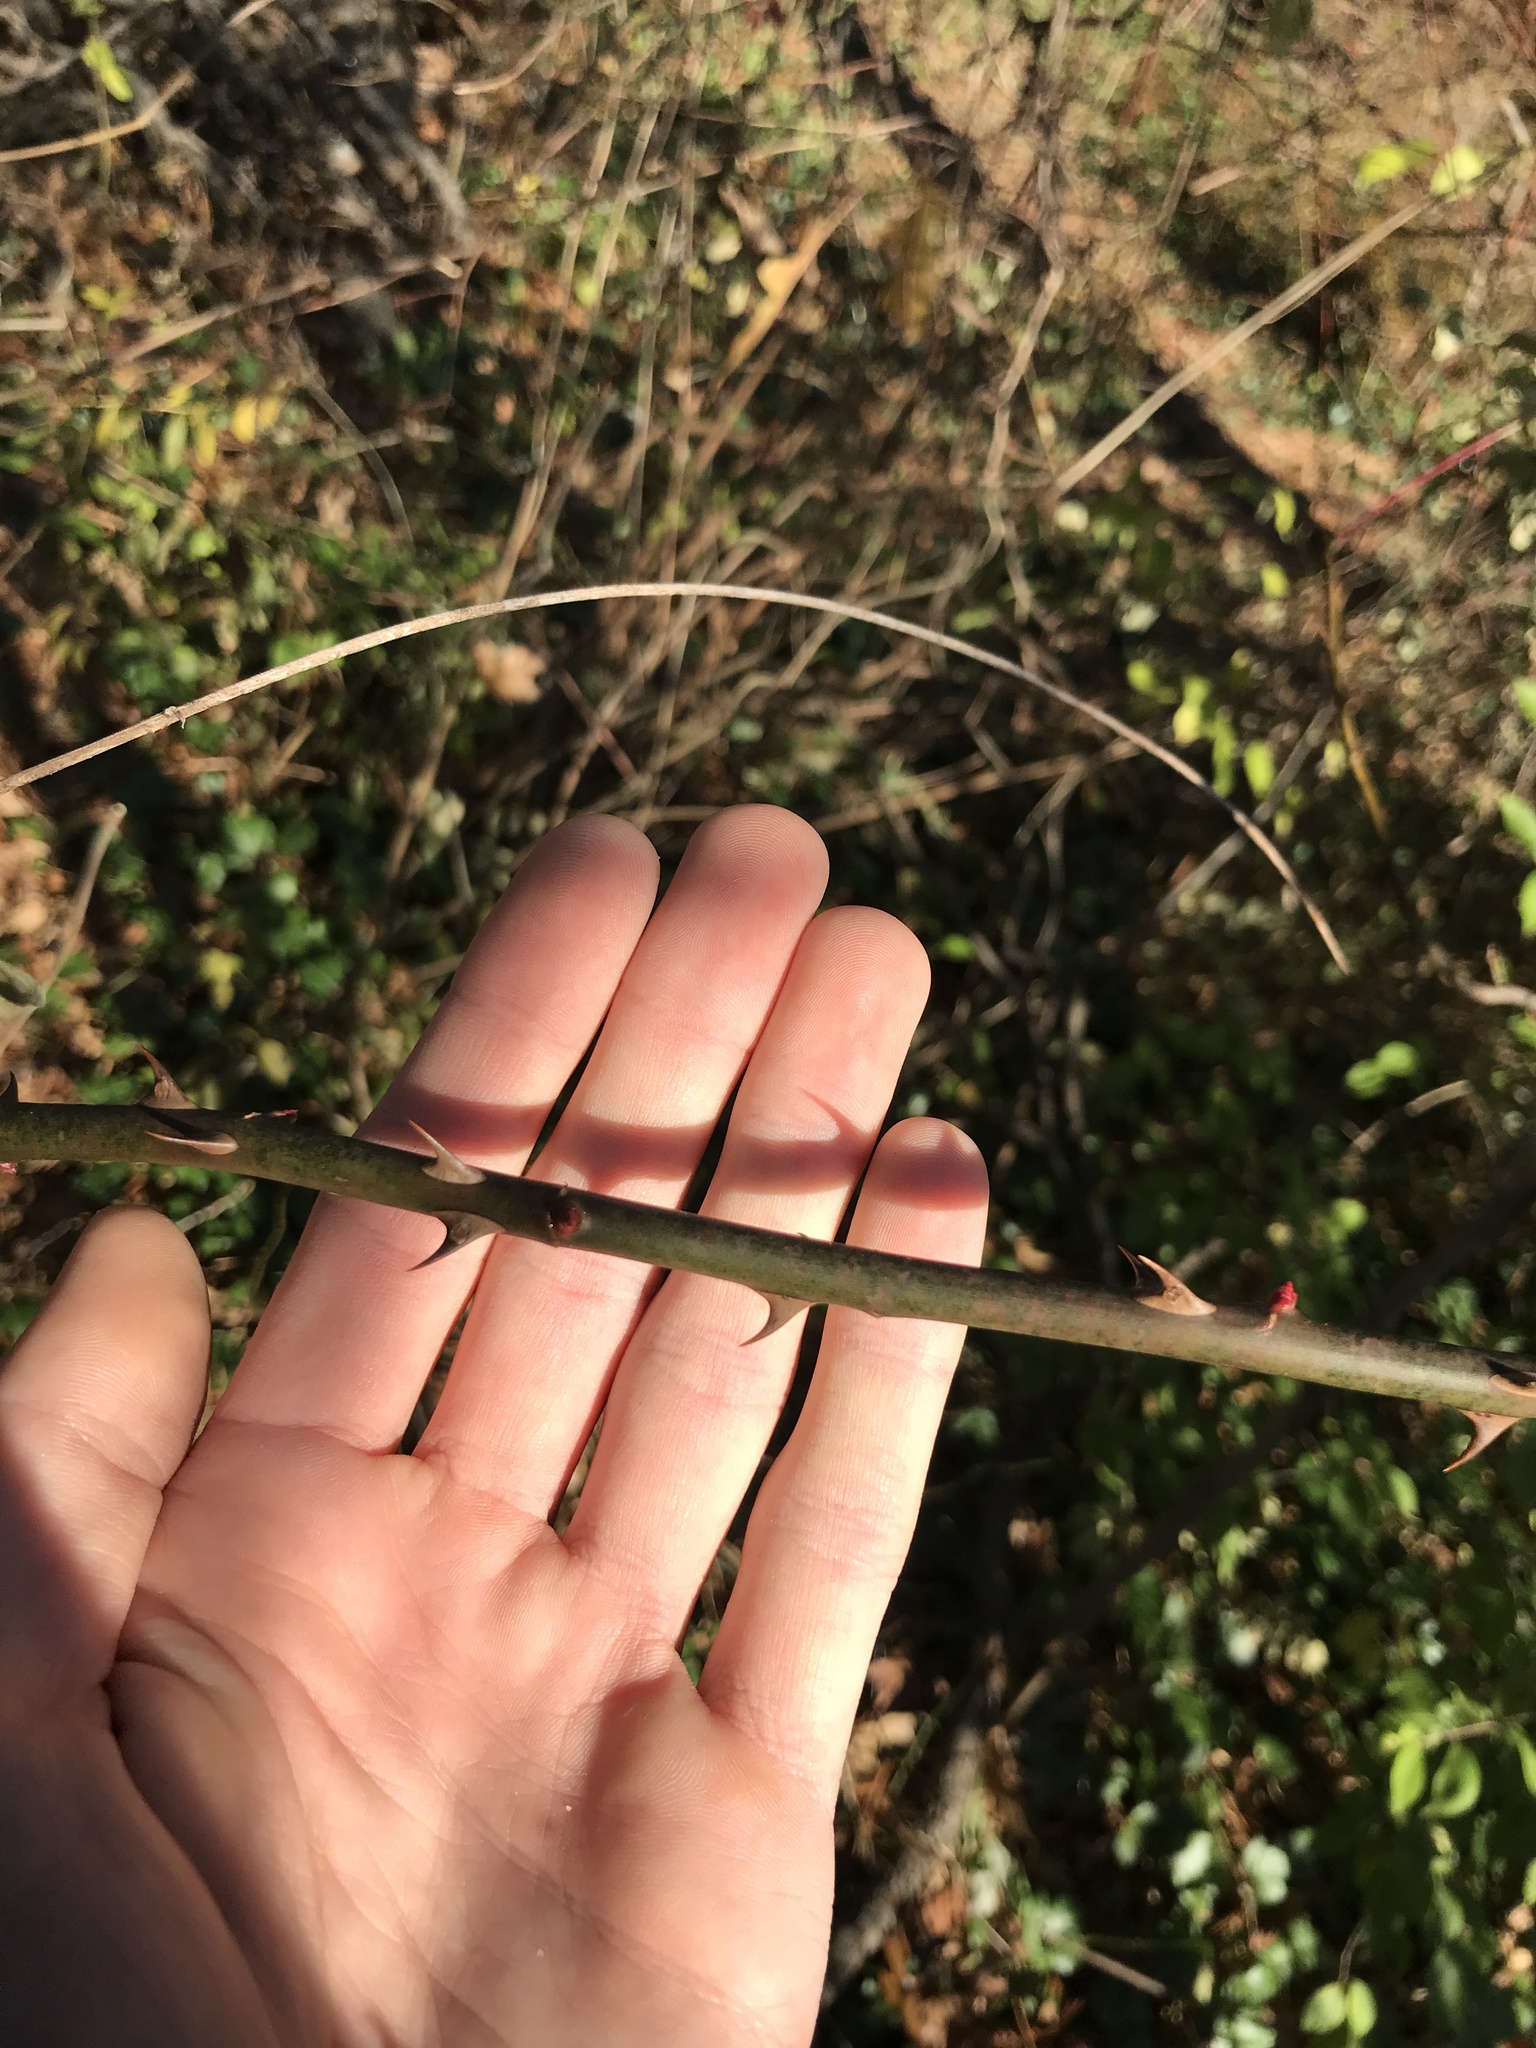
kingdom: Plantae
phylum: Tracheophyta
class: Magnoliopsida
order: Rosales
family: Rosaceae
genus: Rosa
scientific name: Rosa multiflora
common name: Multiflora rose
